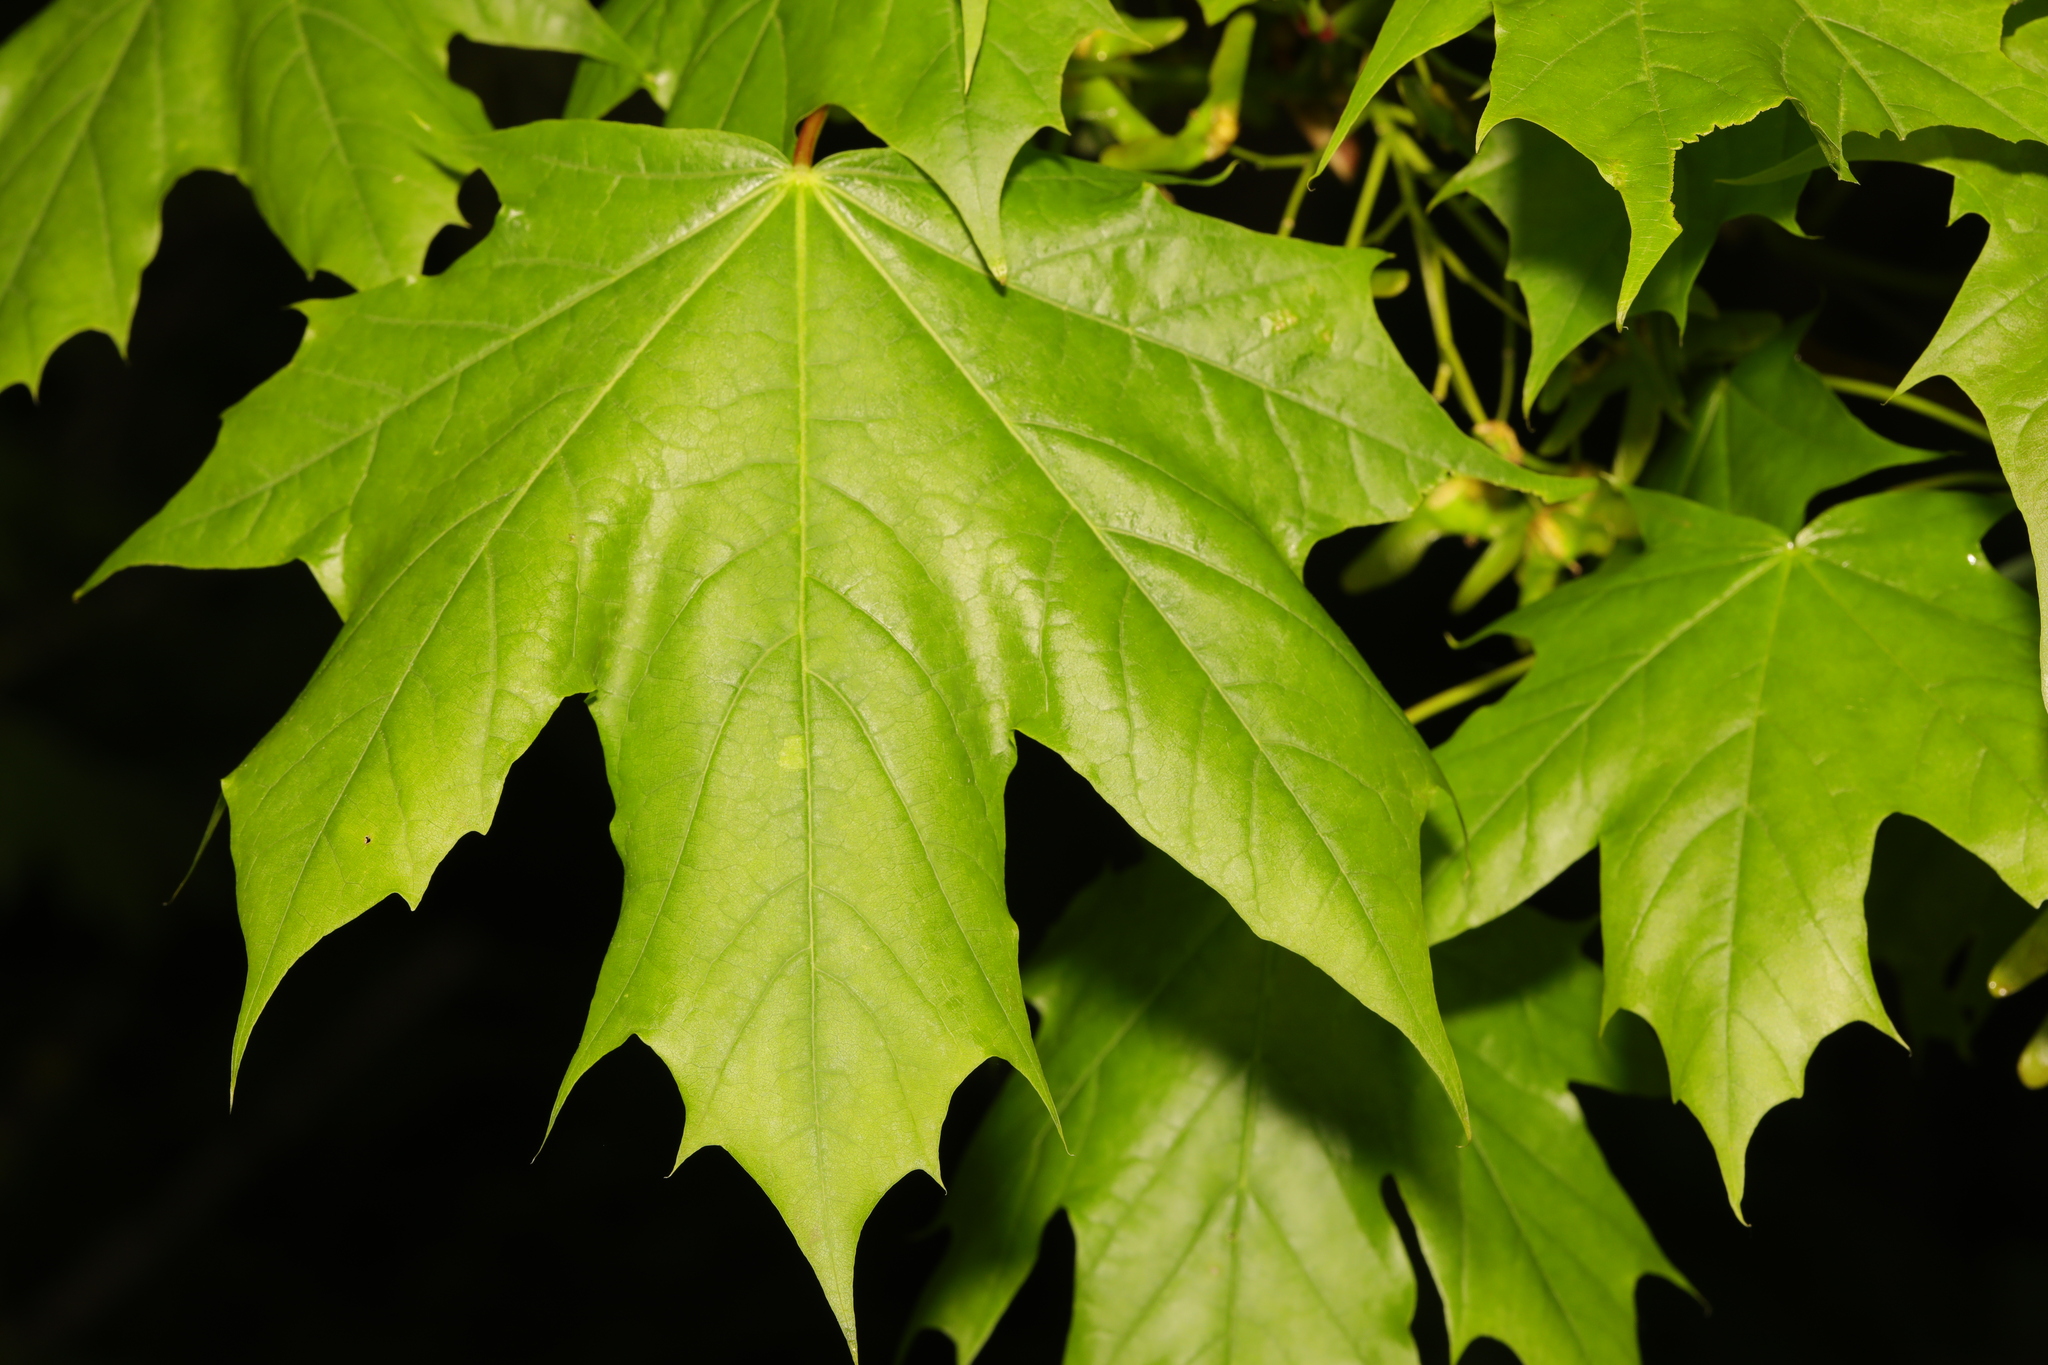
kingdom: Plantae
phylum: Tracheophyta
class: Magnoliopsida
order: Sapindales
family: Sapindaceae
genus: Acer
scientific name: Acer platanoides
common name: Norway maple
